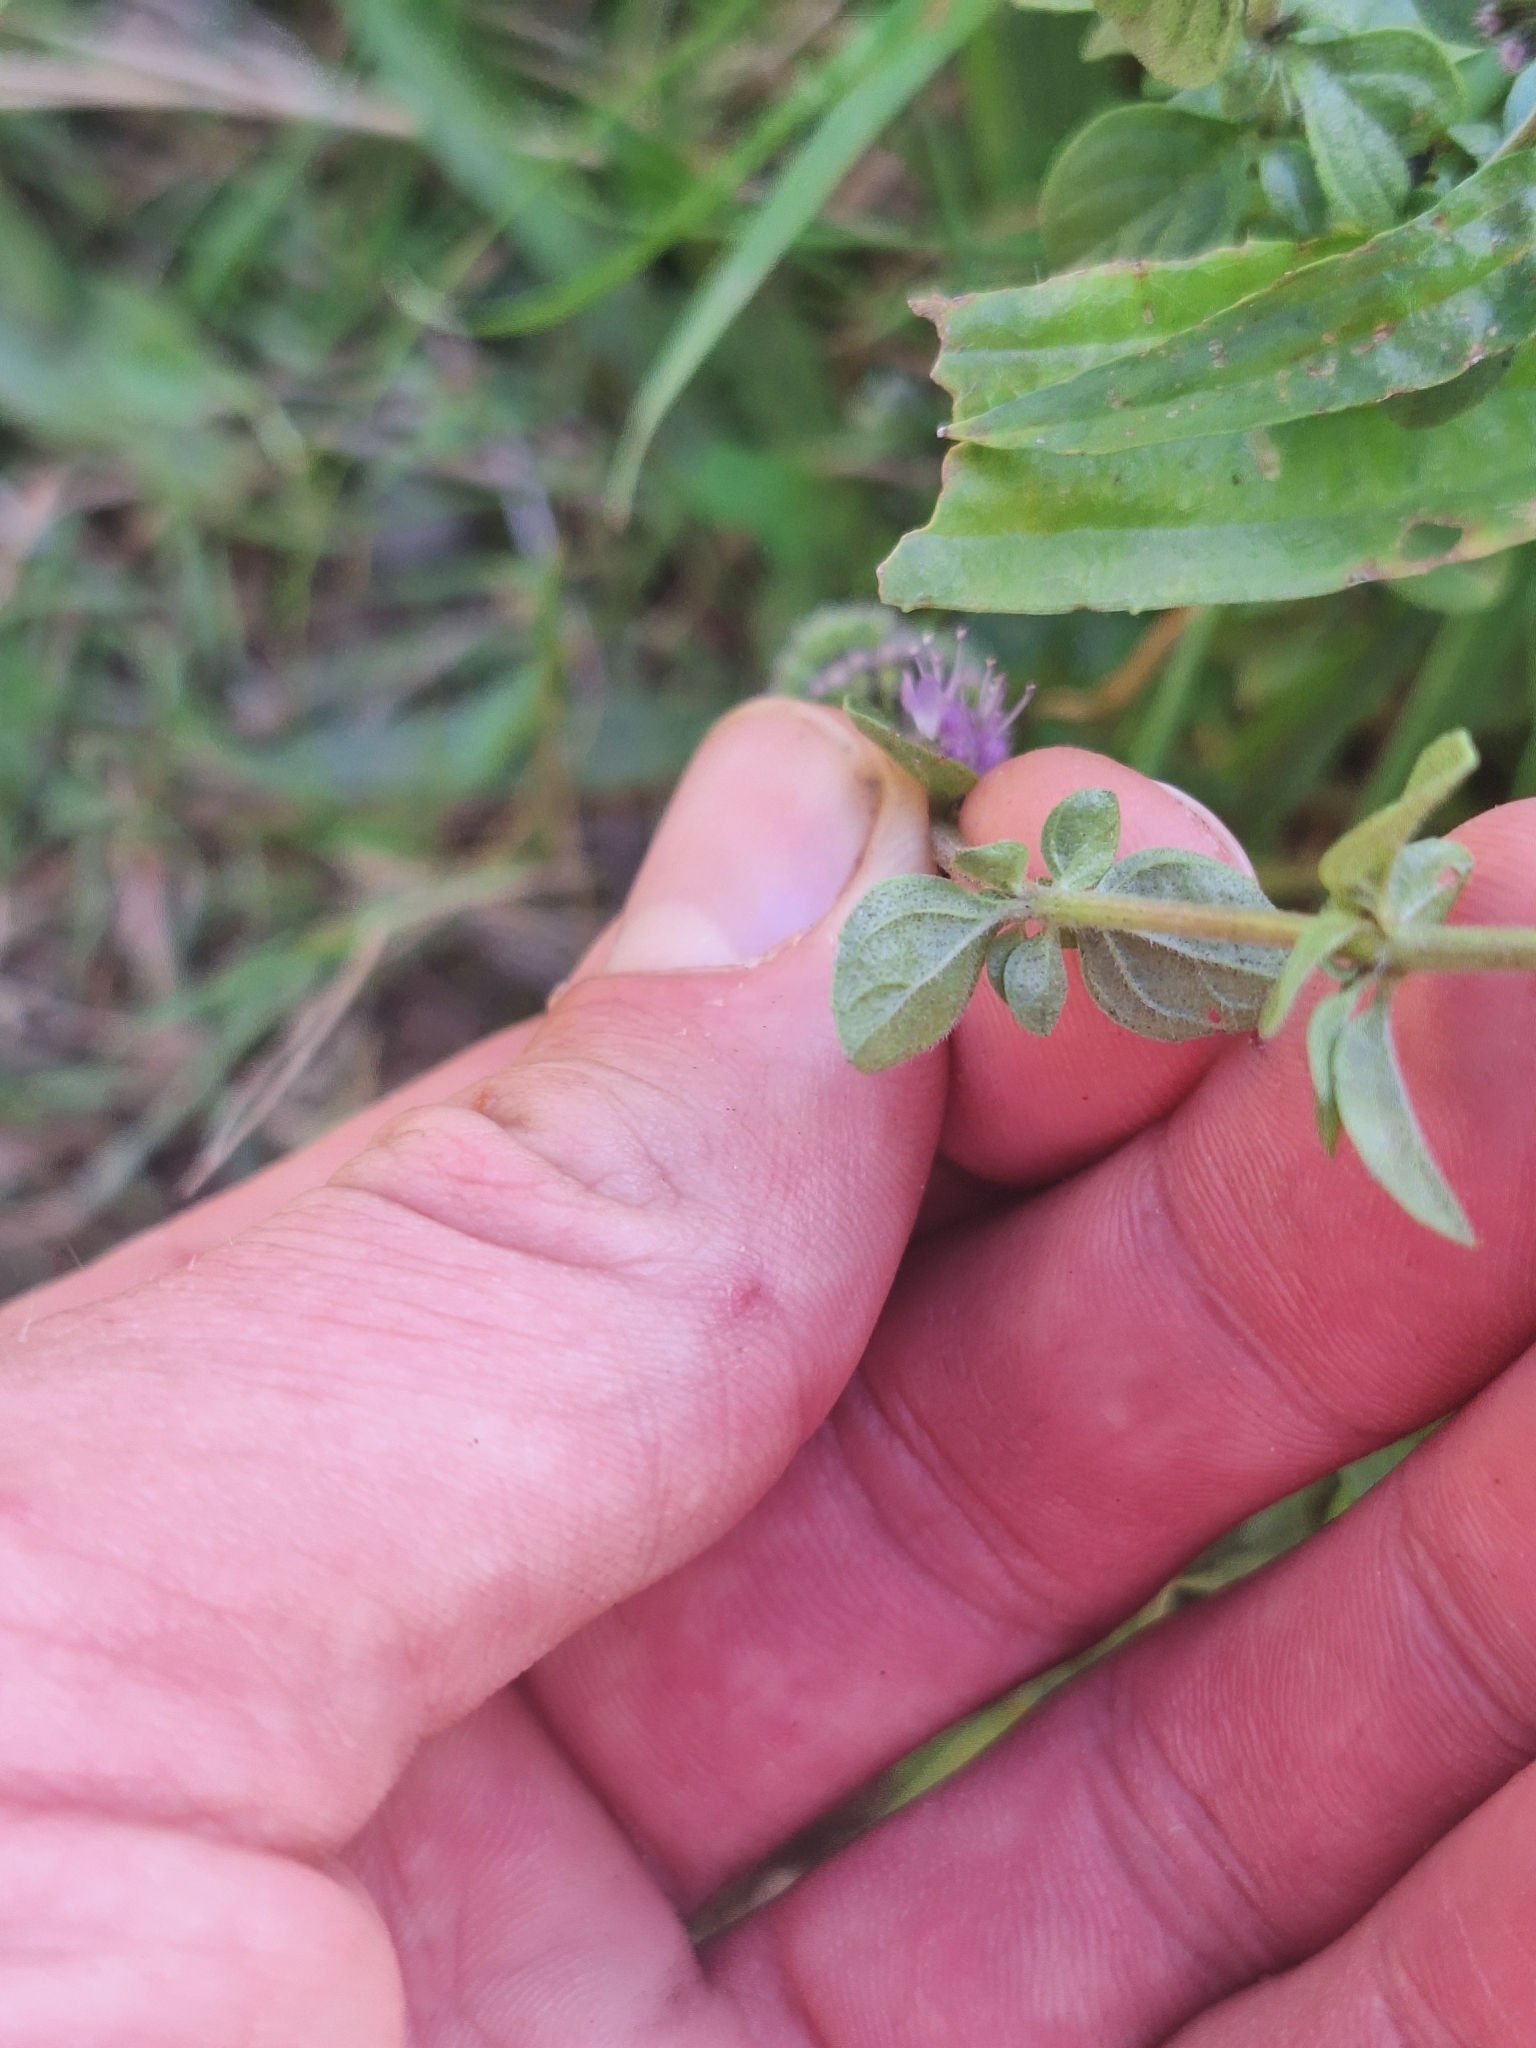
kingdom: Plantae
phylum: Tracheophyta
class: Magnoliopsida
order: Lamiales
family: Lamiaceae
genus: Mentha
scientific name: Mentha pulegium
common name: Pennyroyal
